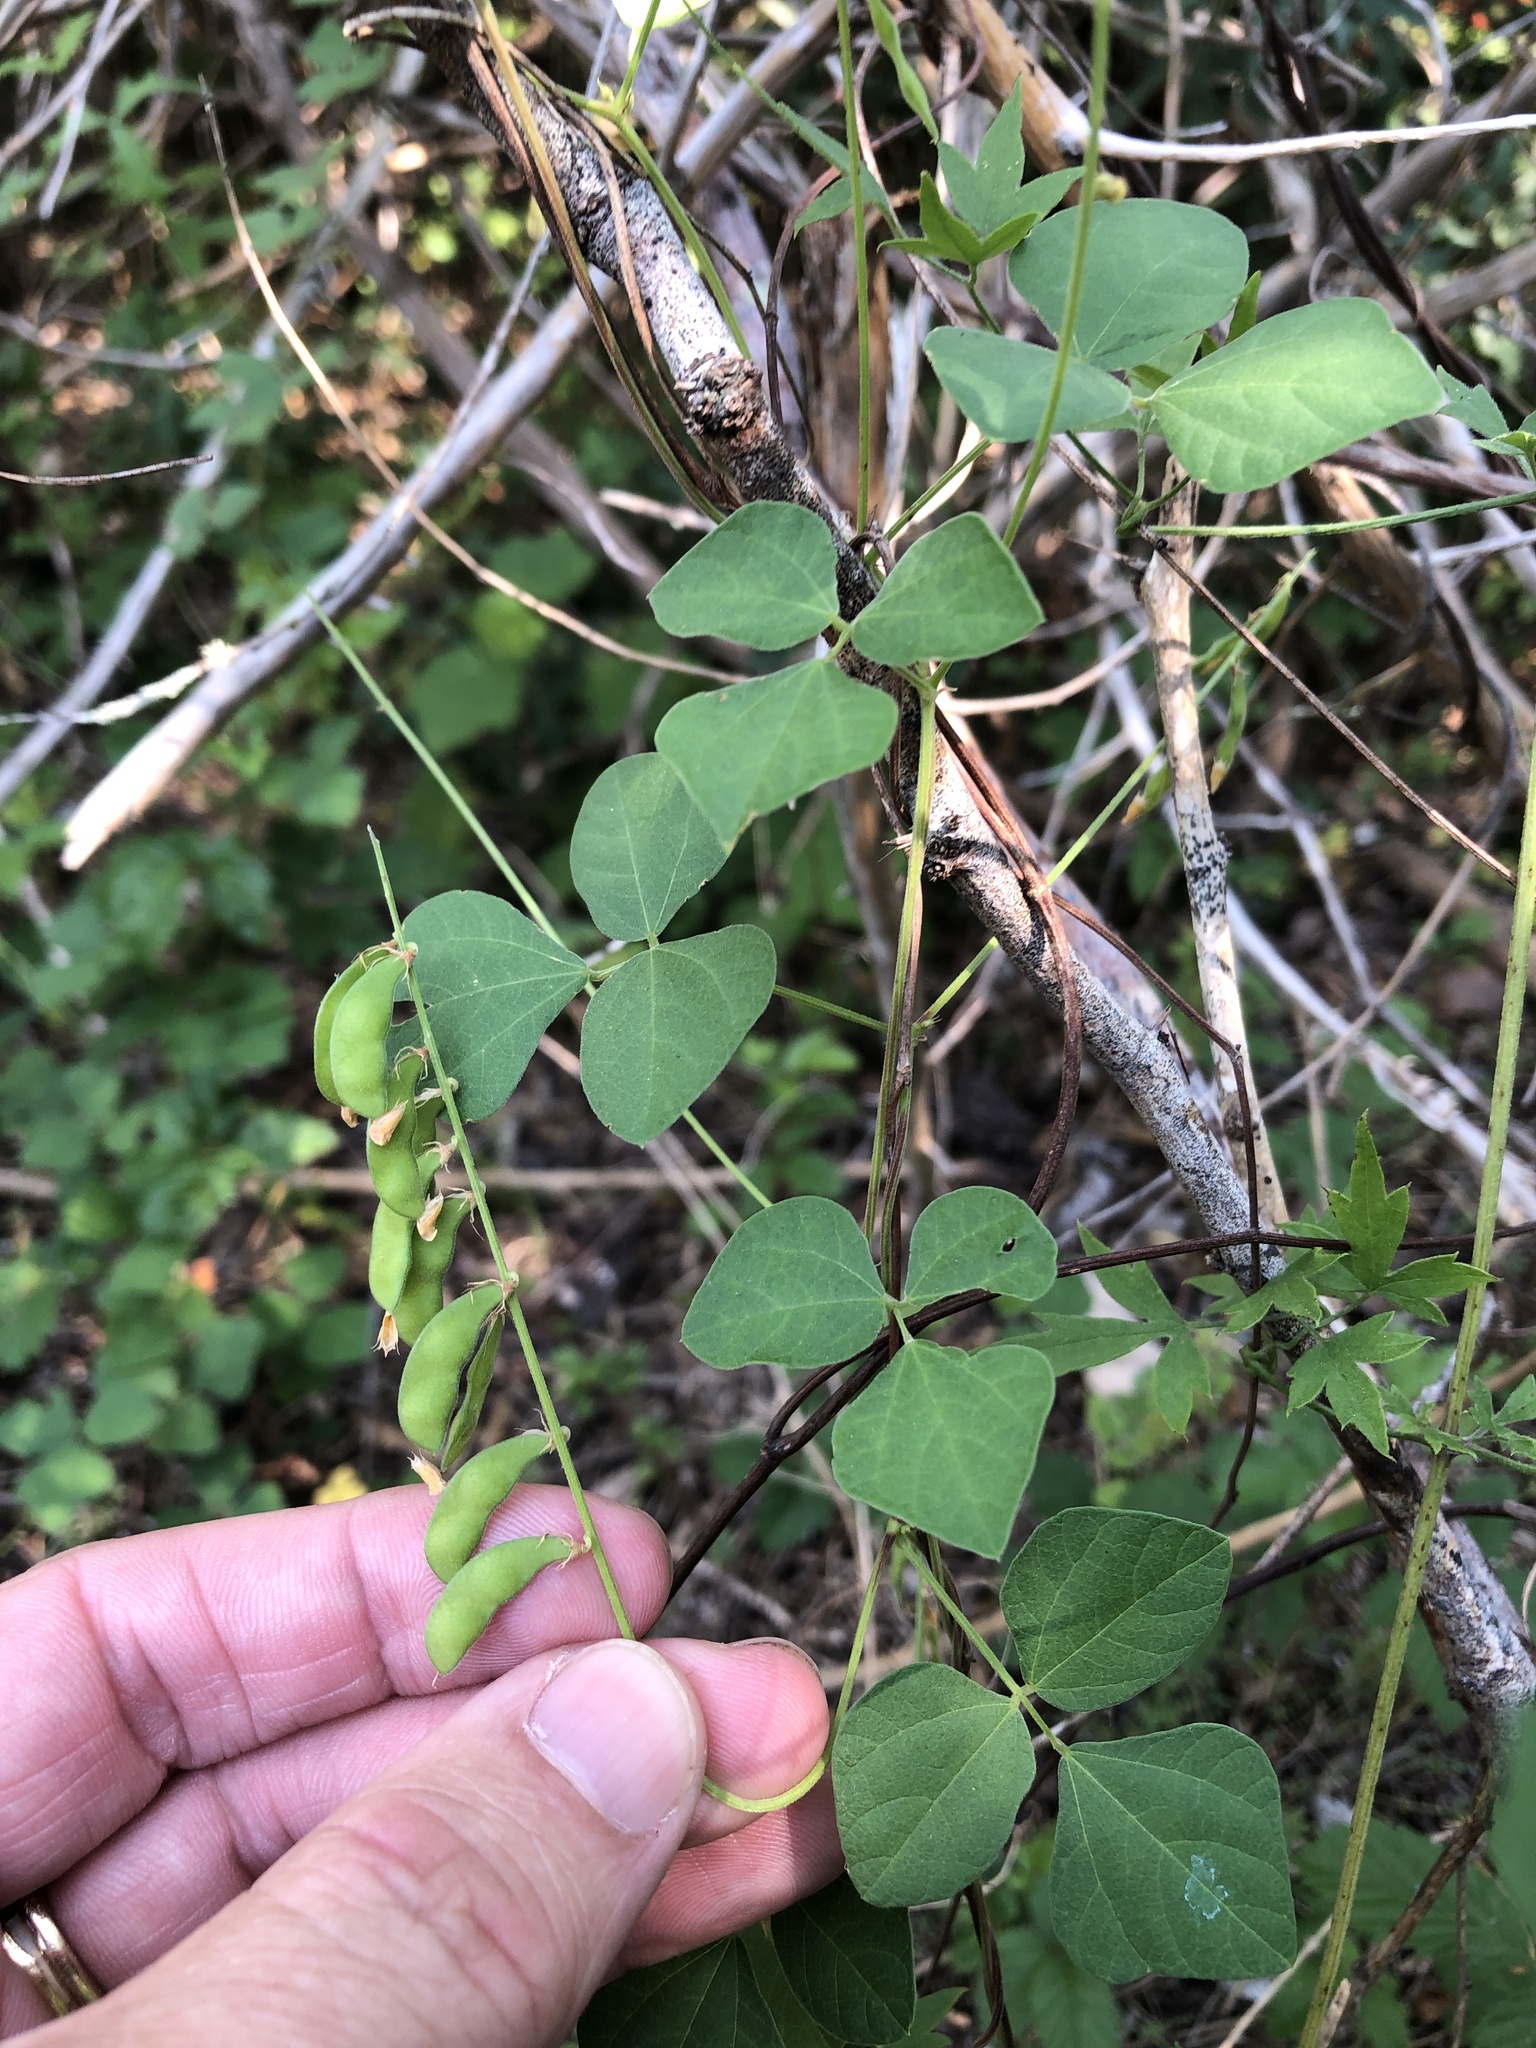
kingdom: Plantae
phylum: Tracheophyta
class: Magnoliopsida
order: Fabales
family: Fabaceae
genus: Rhynchosia
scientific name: Rhynchosia minima
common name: Least snoutbean
